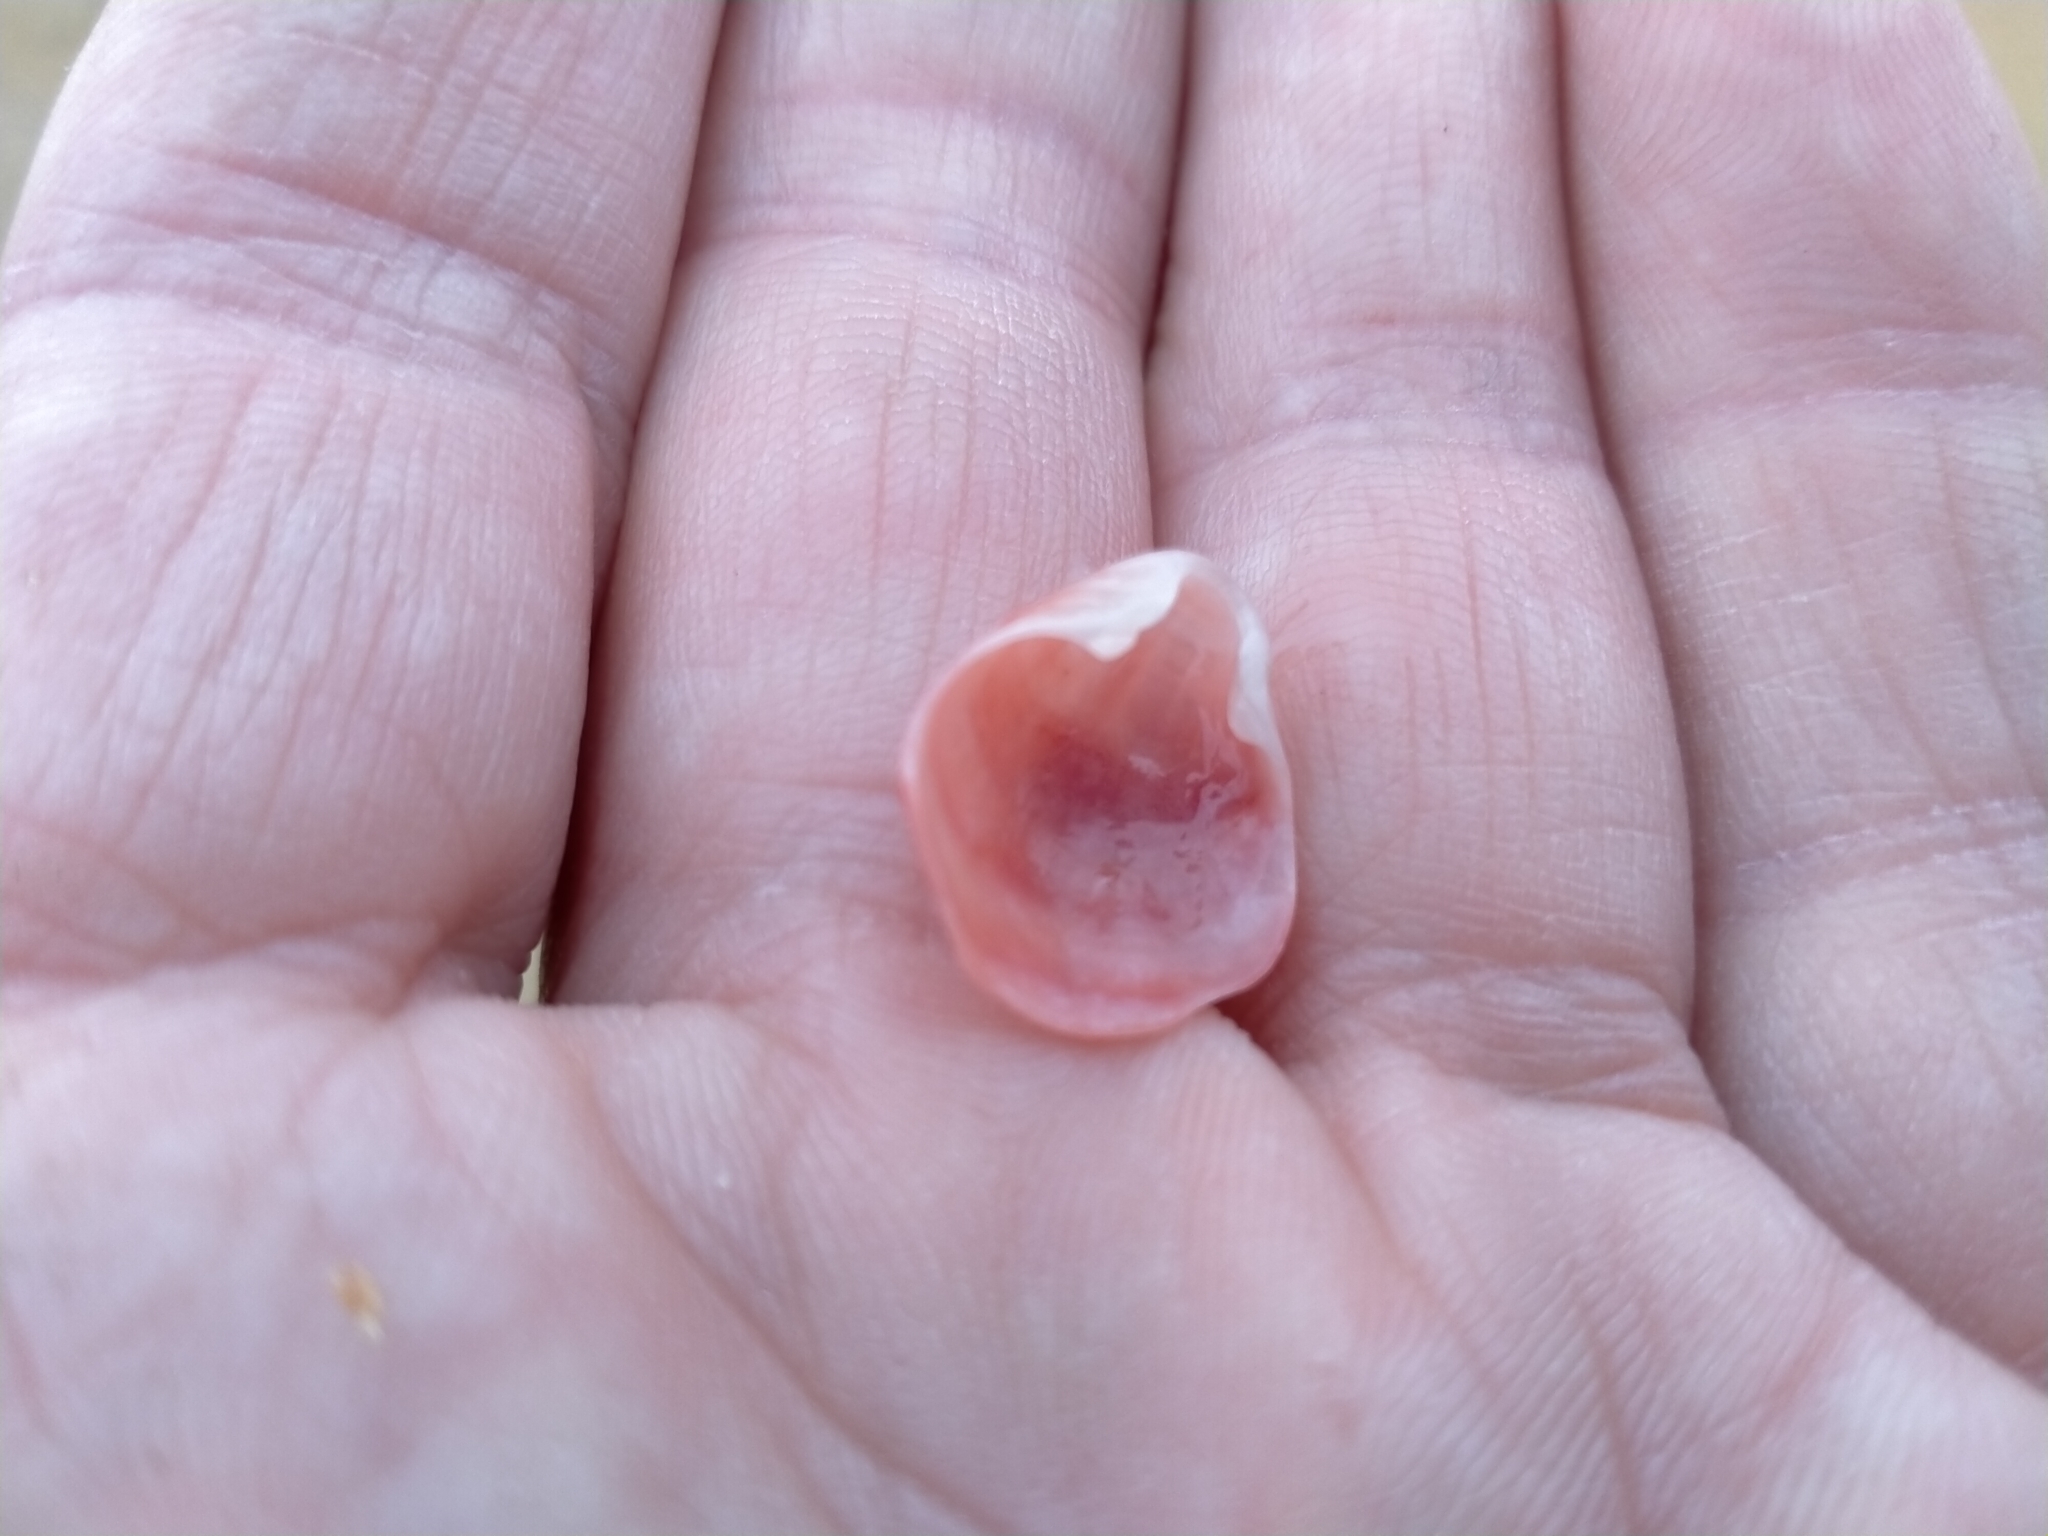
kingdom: Animalia
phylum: Brachiopoda
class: Rhynchonellata
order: Terebratulida
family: Terebratellidae
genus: Calloria
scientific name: Calloria inconspicua
